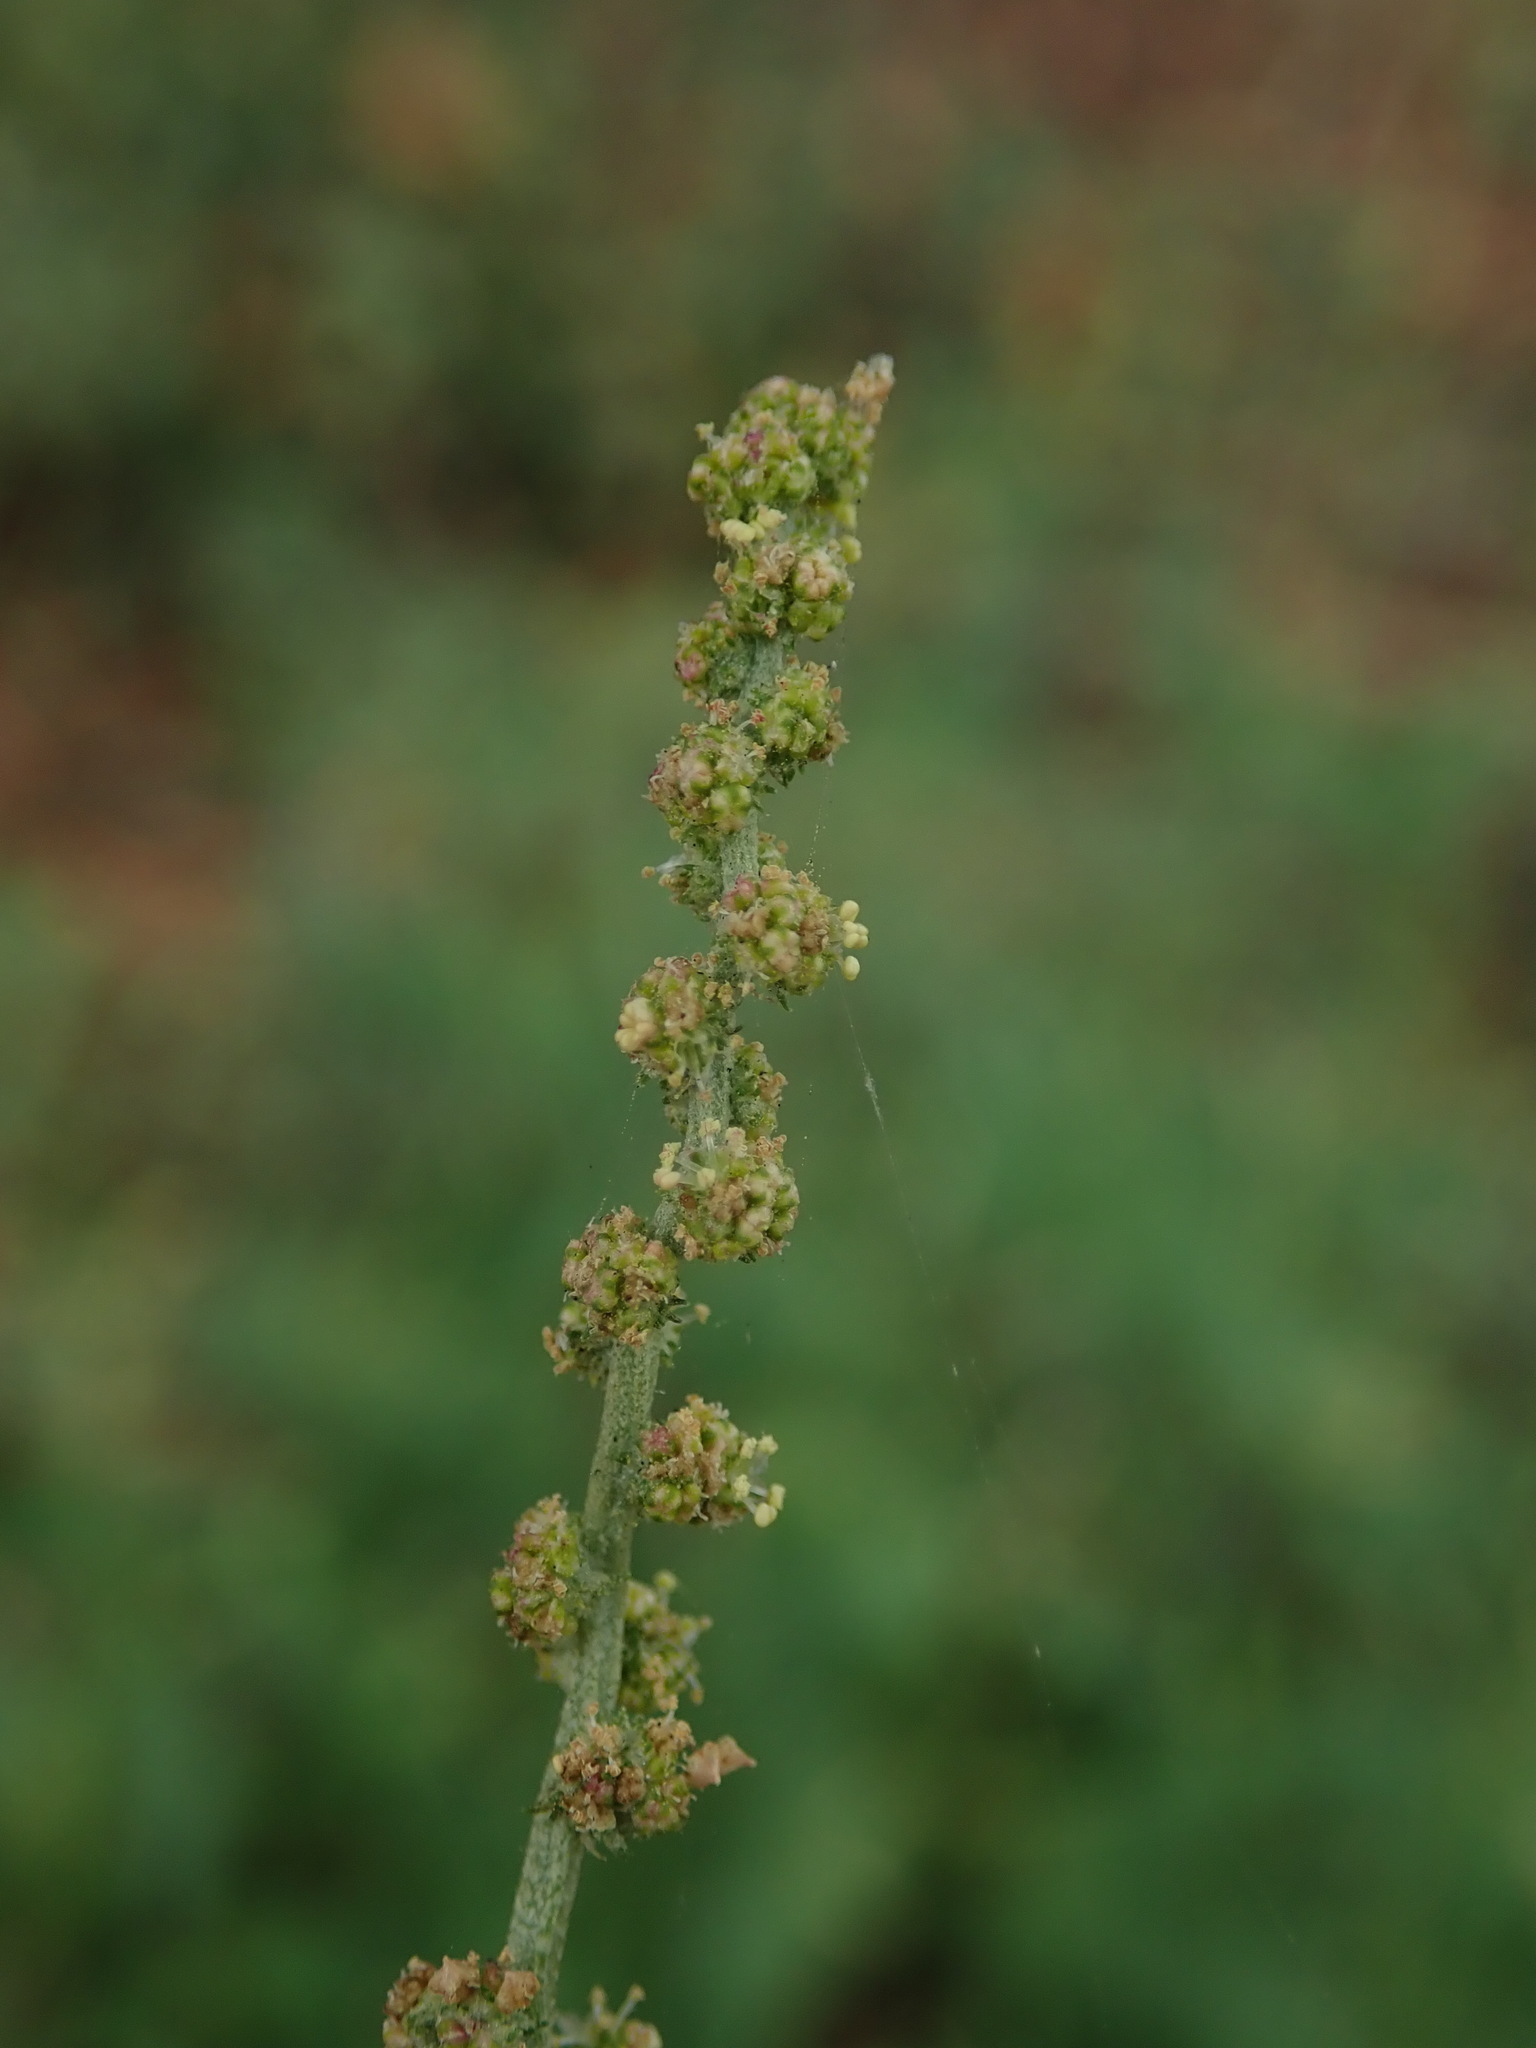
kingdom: Plantae
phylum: Tracheophyta
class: Magnoliopsida
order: Caryophyllales
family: Amaranthaceae
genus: Atriplex
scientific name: Atriplex prostrata
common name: Spear-leaved orache
